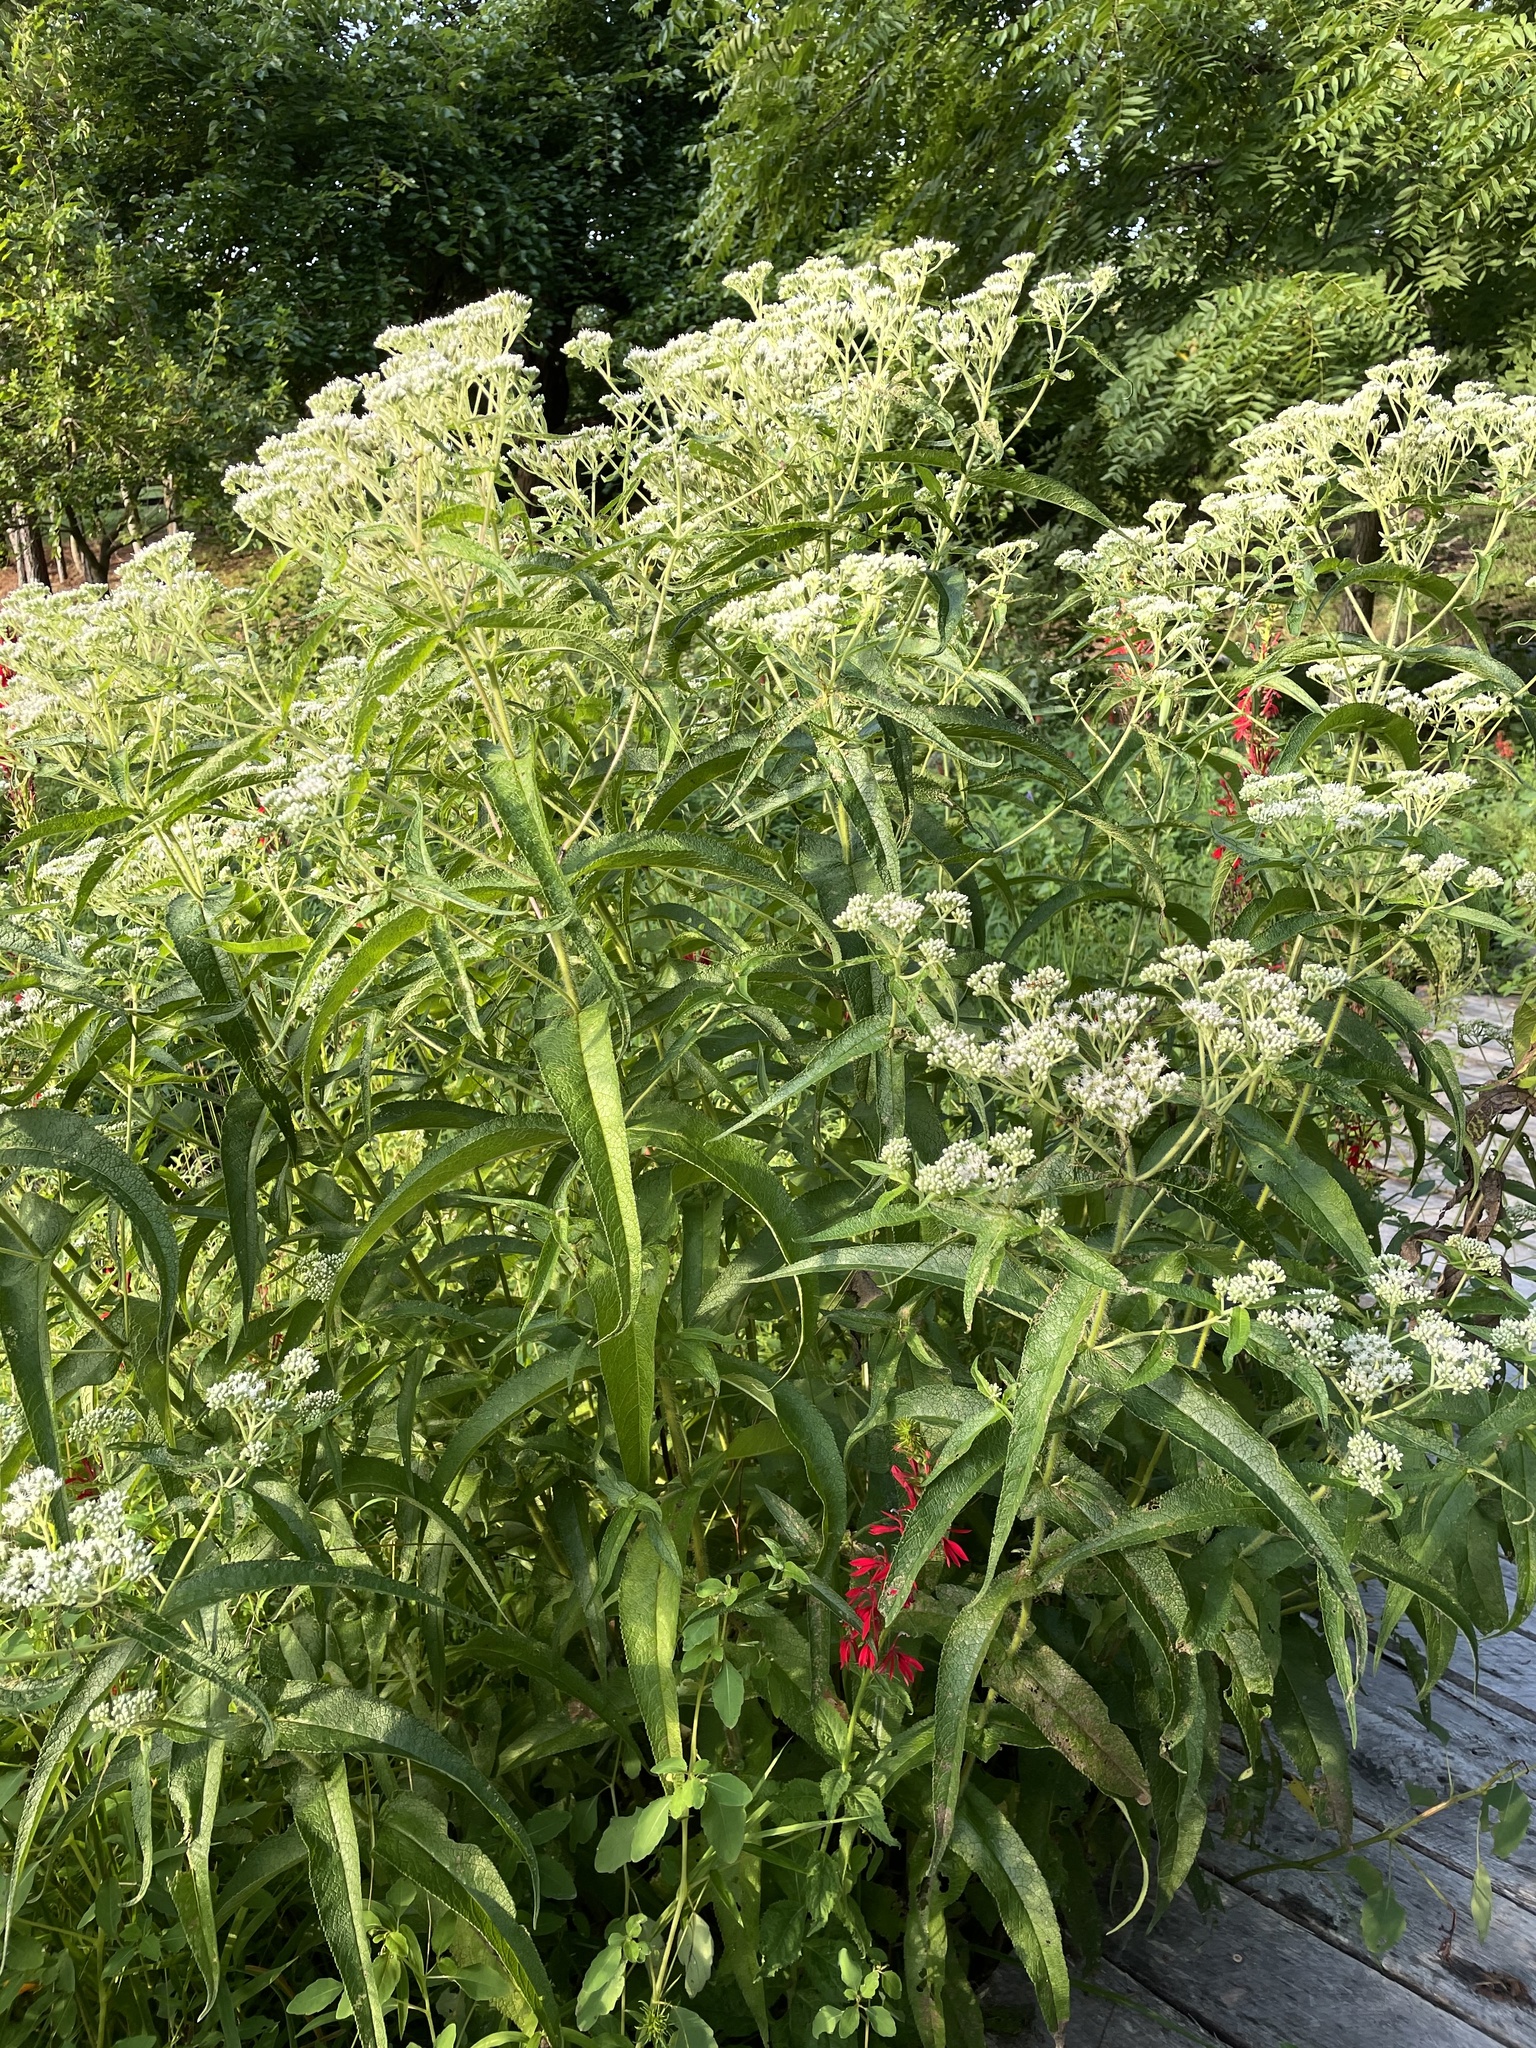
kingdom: Plantae
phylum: Tracheophyta
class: Magnoliopsida
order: Asterales
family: Asteraceae
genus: Eupatorium
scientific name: Eupatorium perfoliatum
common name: Boneset
